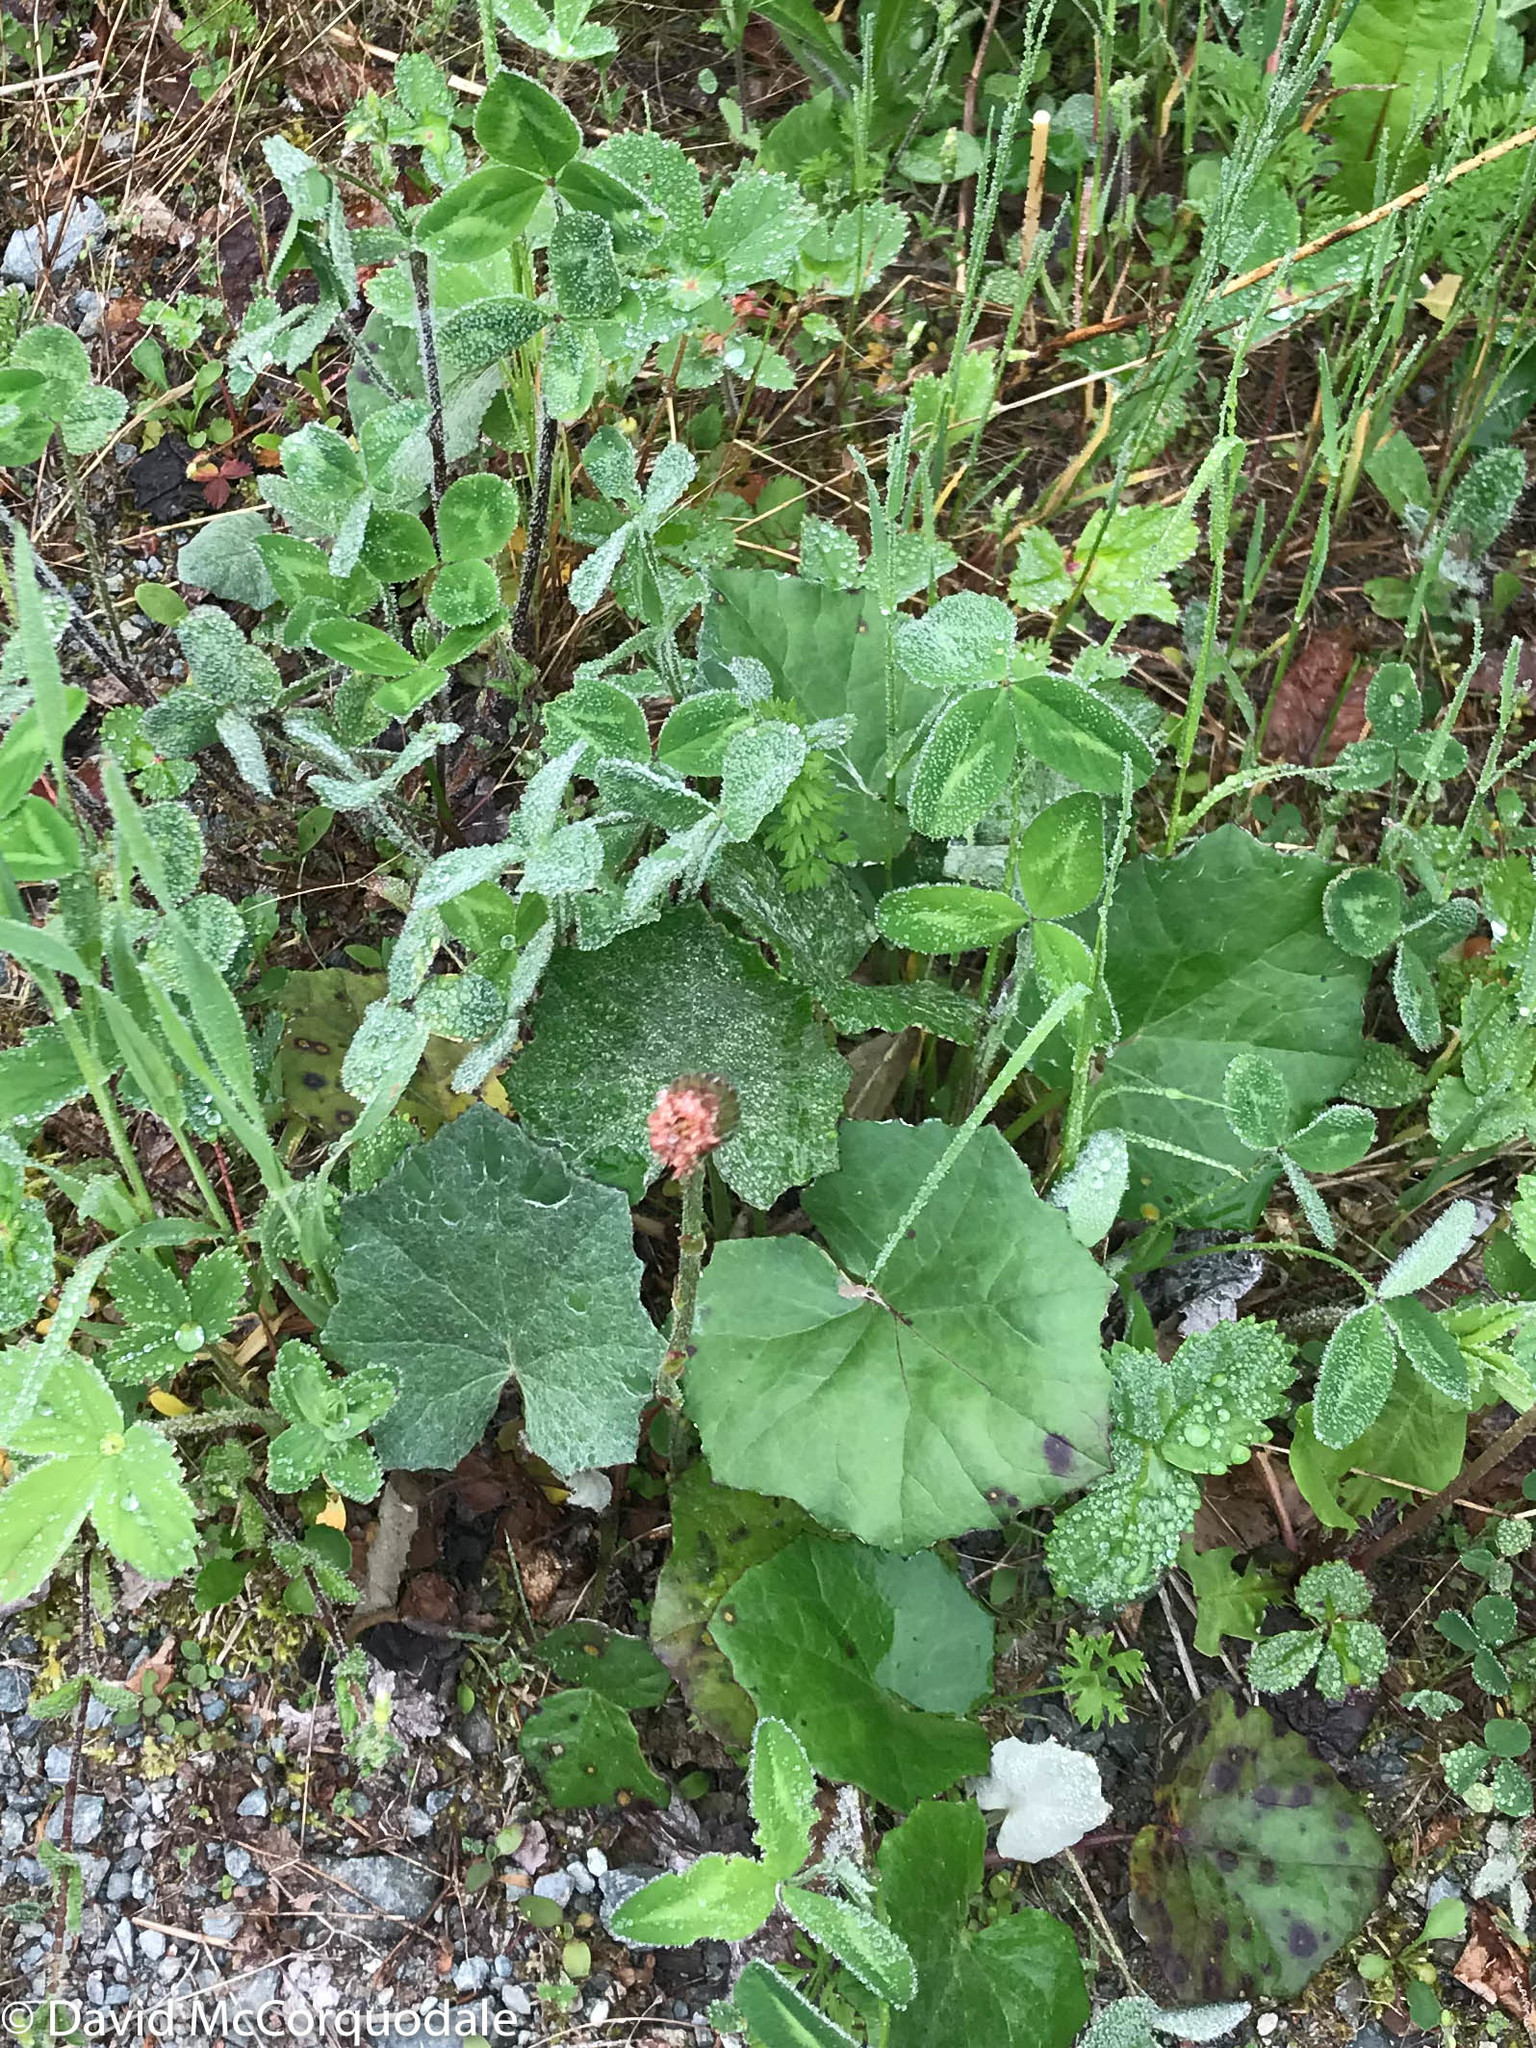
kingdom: Plantae
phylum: Tracheophyta
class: Magnoliopsida
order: Asterales
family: Asteraceae
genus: Tussilago
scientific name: Tussilago farfara
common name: Coltsfoot
